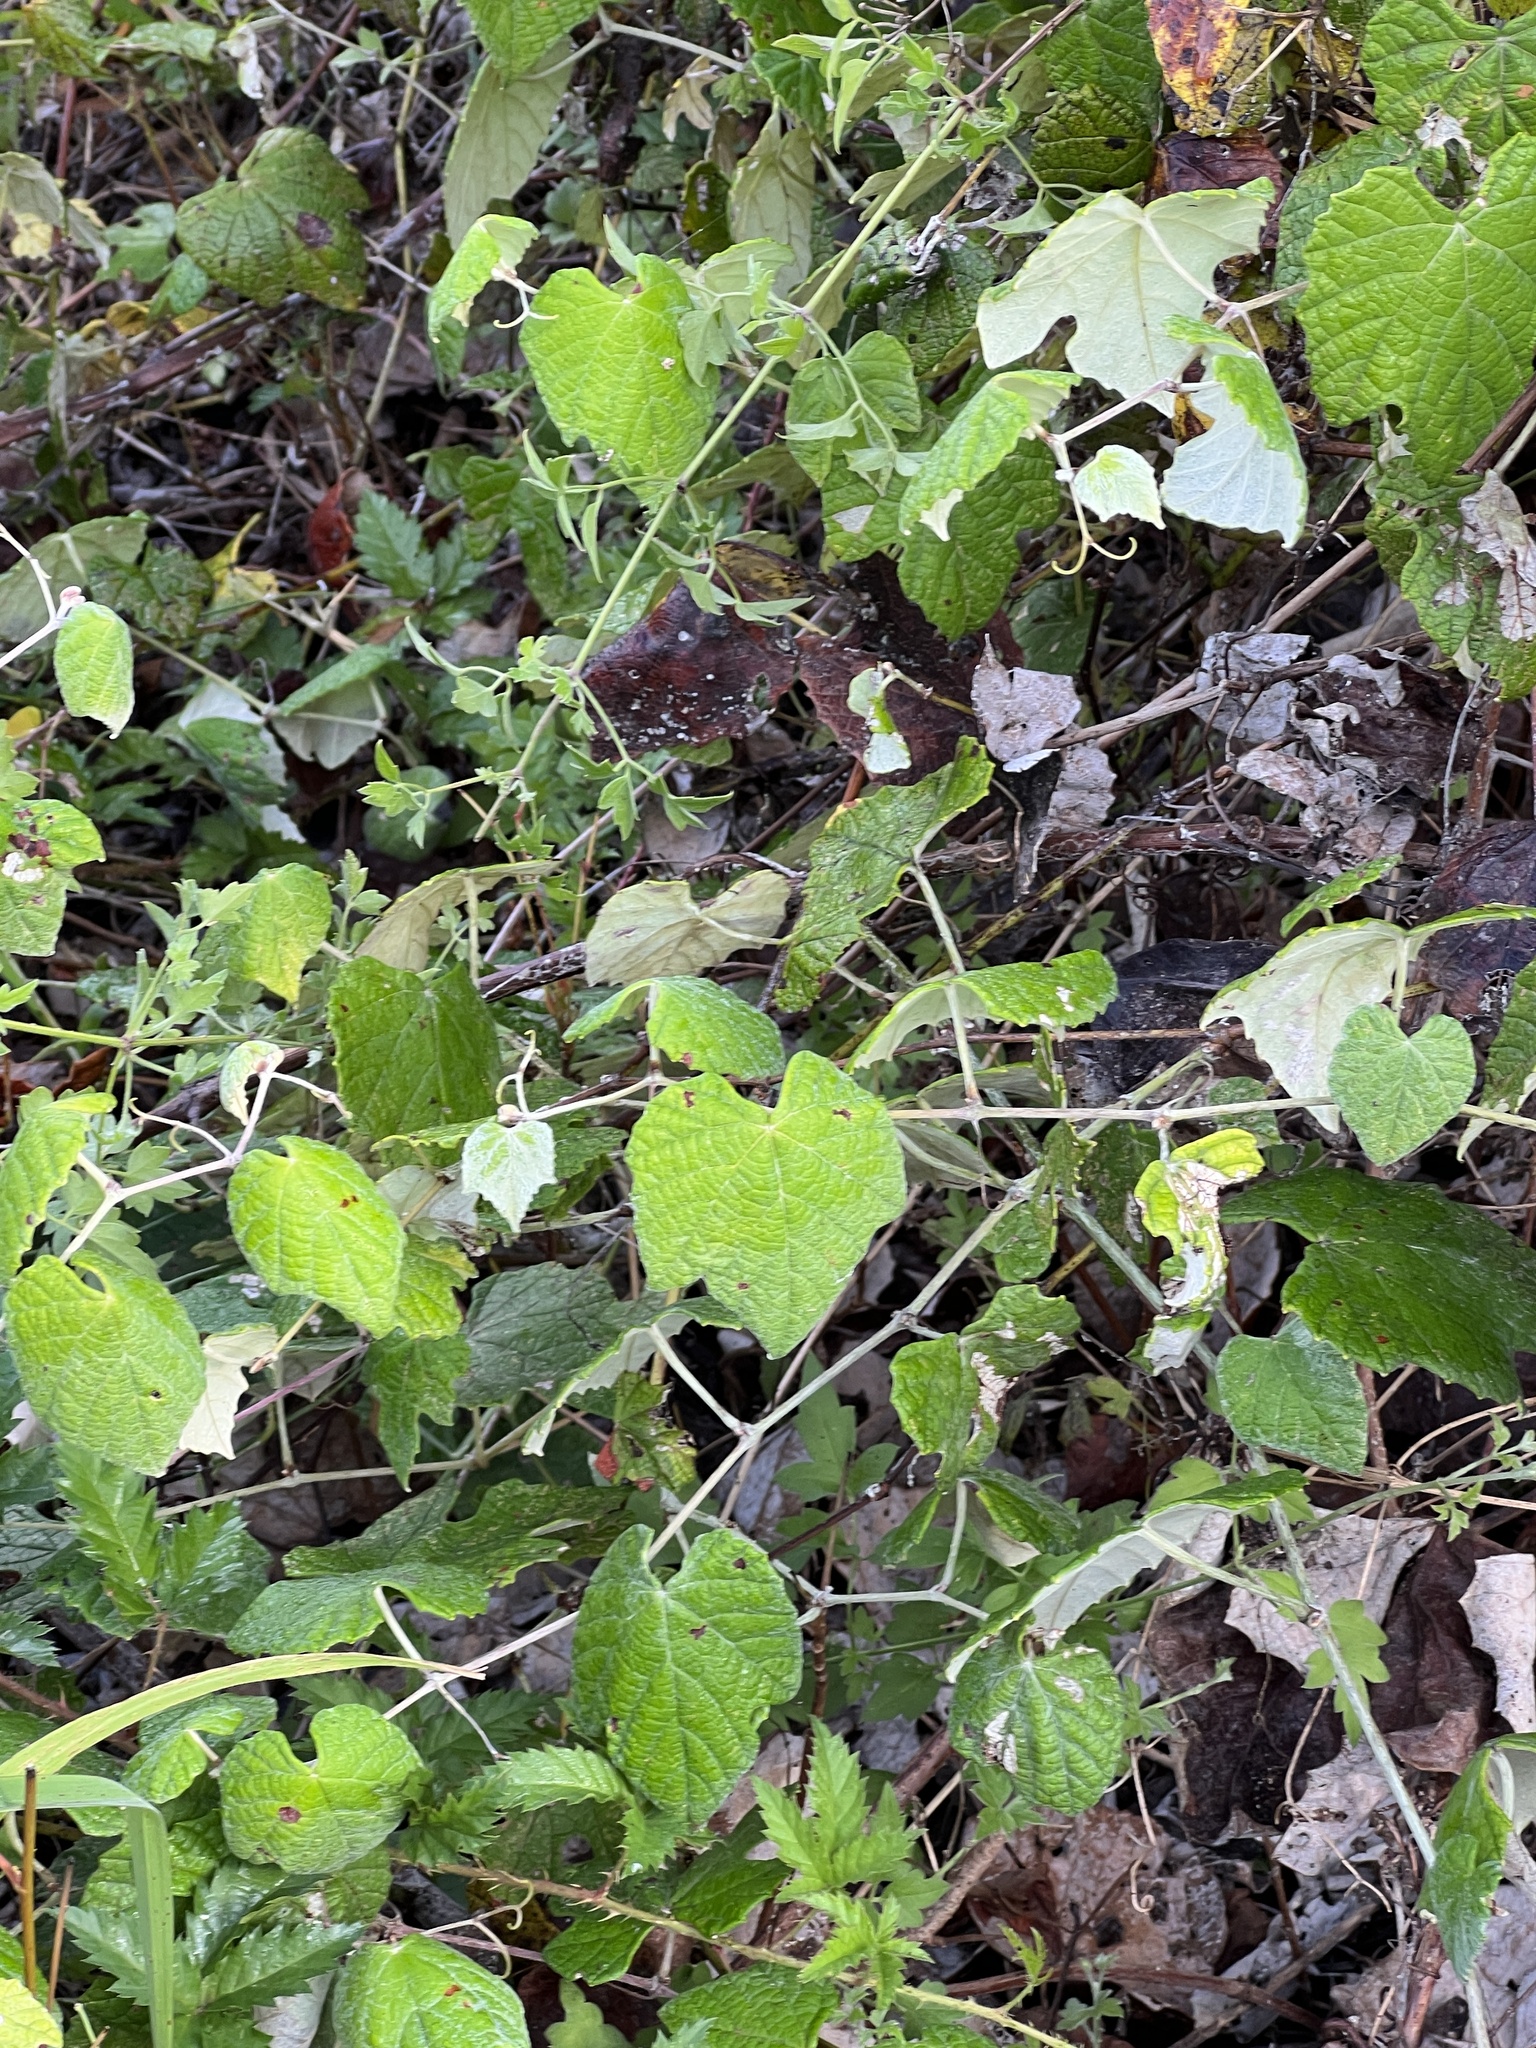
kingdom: Plantae
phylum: Tracheophyta
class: Magnoliopsida
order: Vitales
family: Vitaceae
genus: Vitis
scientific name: Vitis mustangensis
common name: Mustang grape
